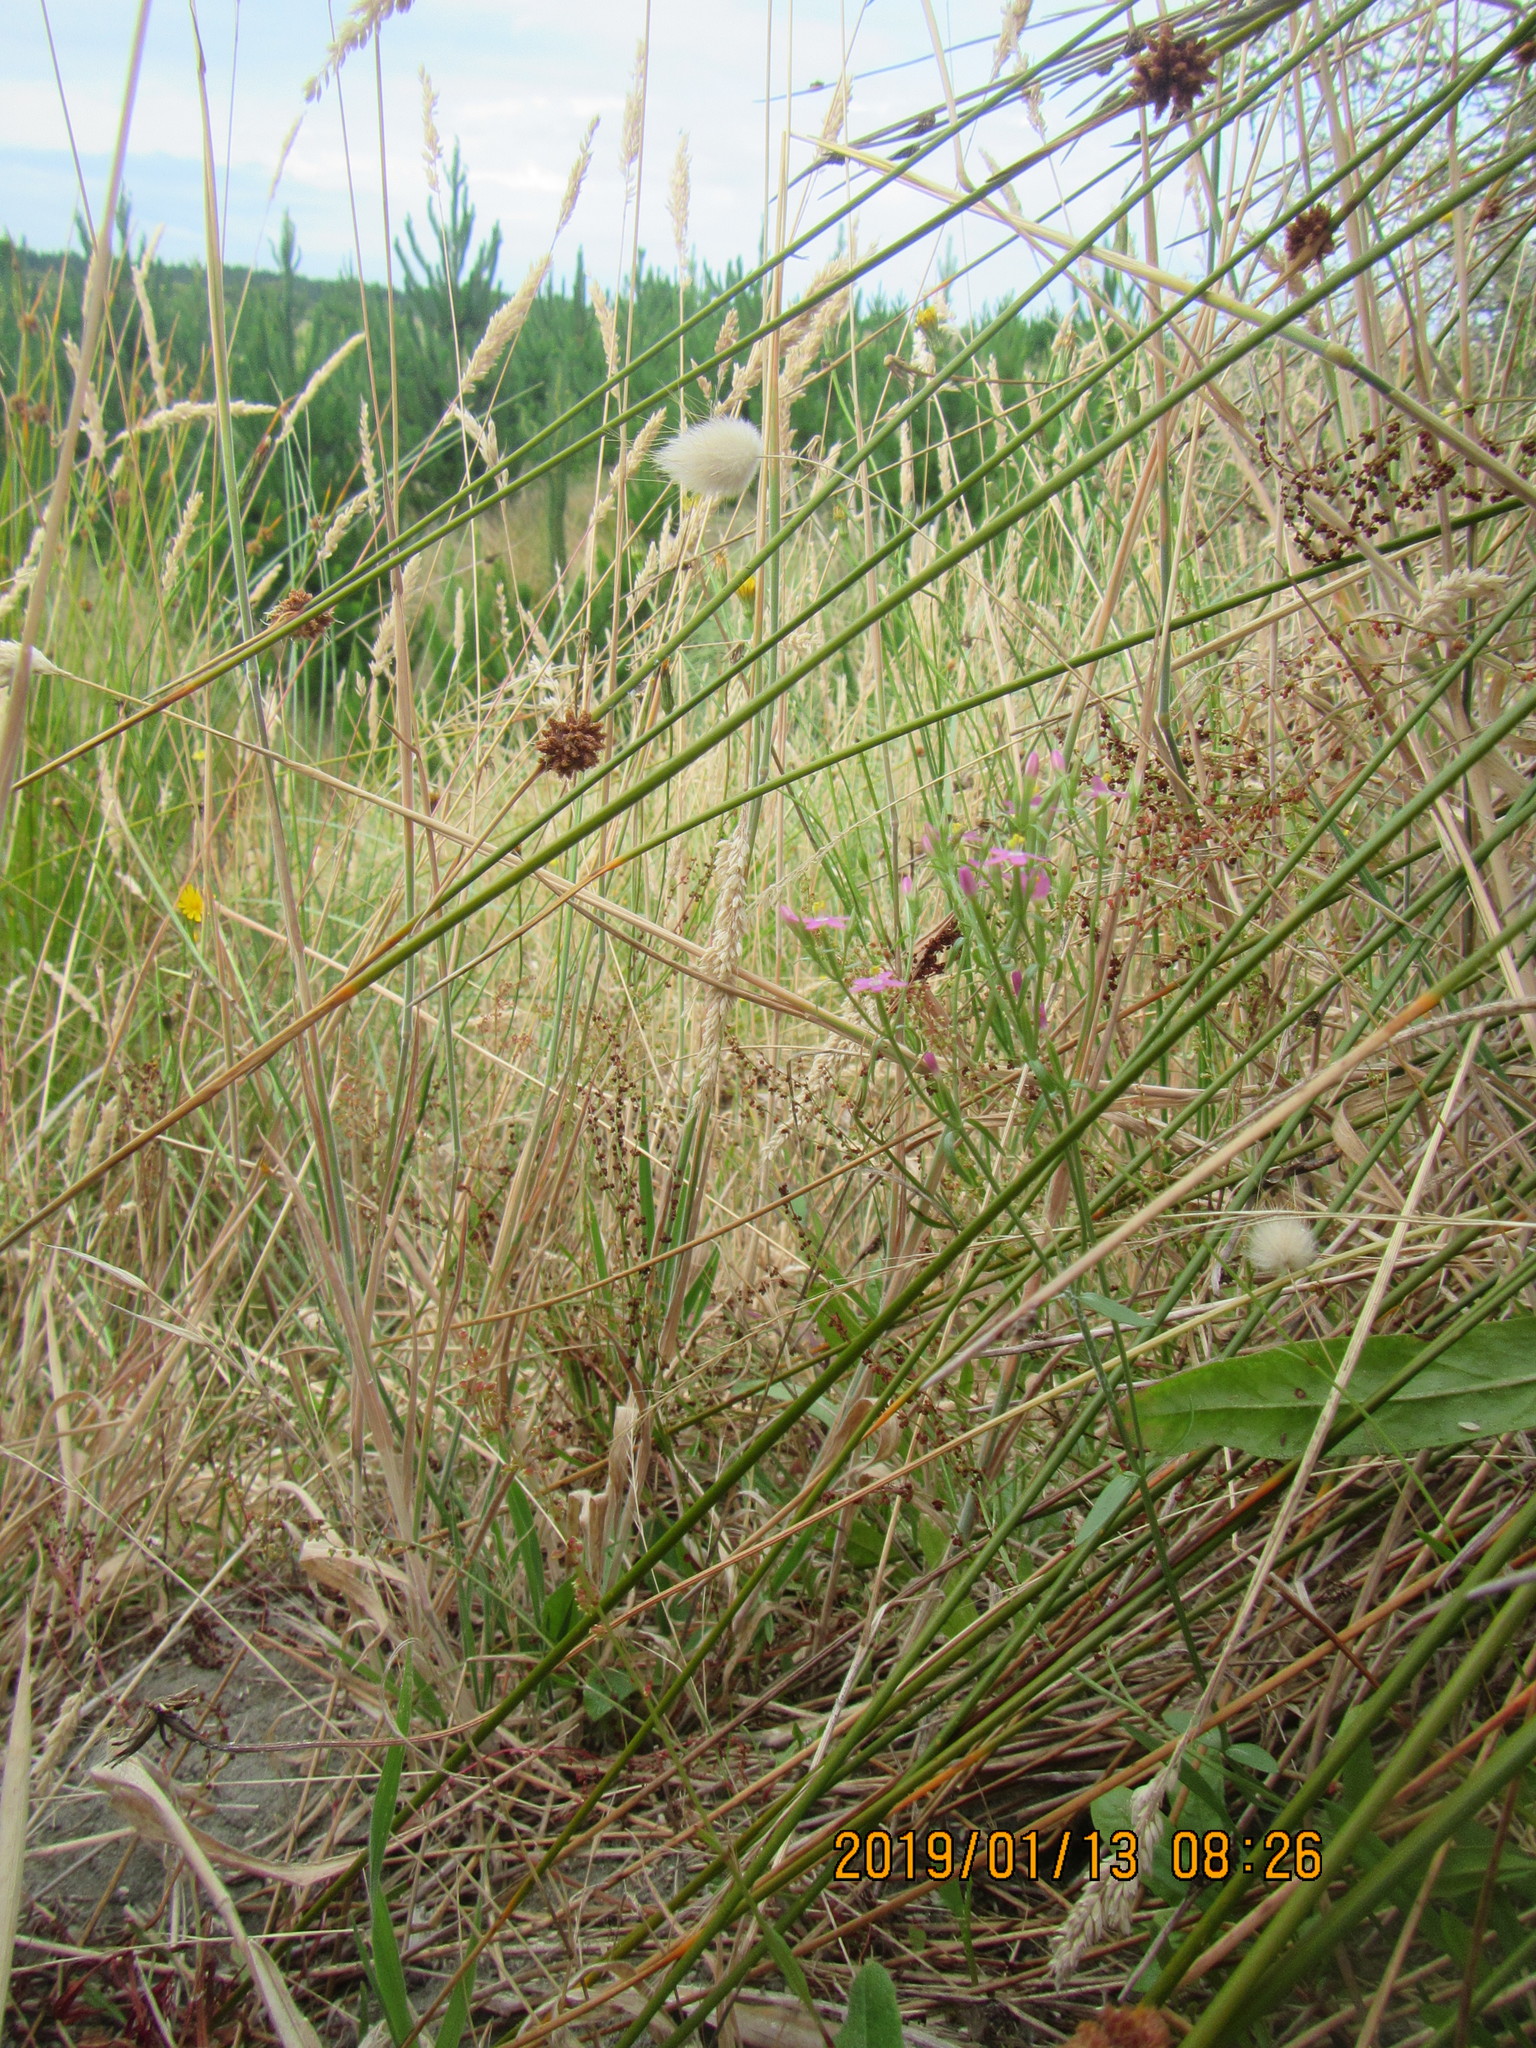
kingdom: Plantae
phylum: Tracheophyta
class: Magnoliopsida
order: Gentianales
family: Gentianaceae
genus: Centaurium
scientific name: Centaurium erythraea
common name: Common centaury
